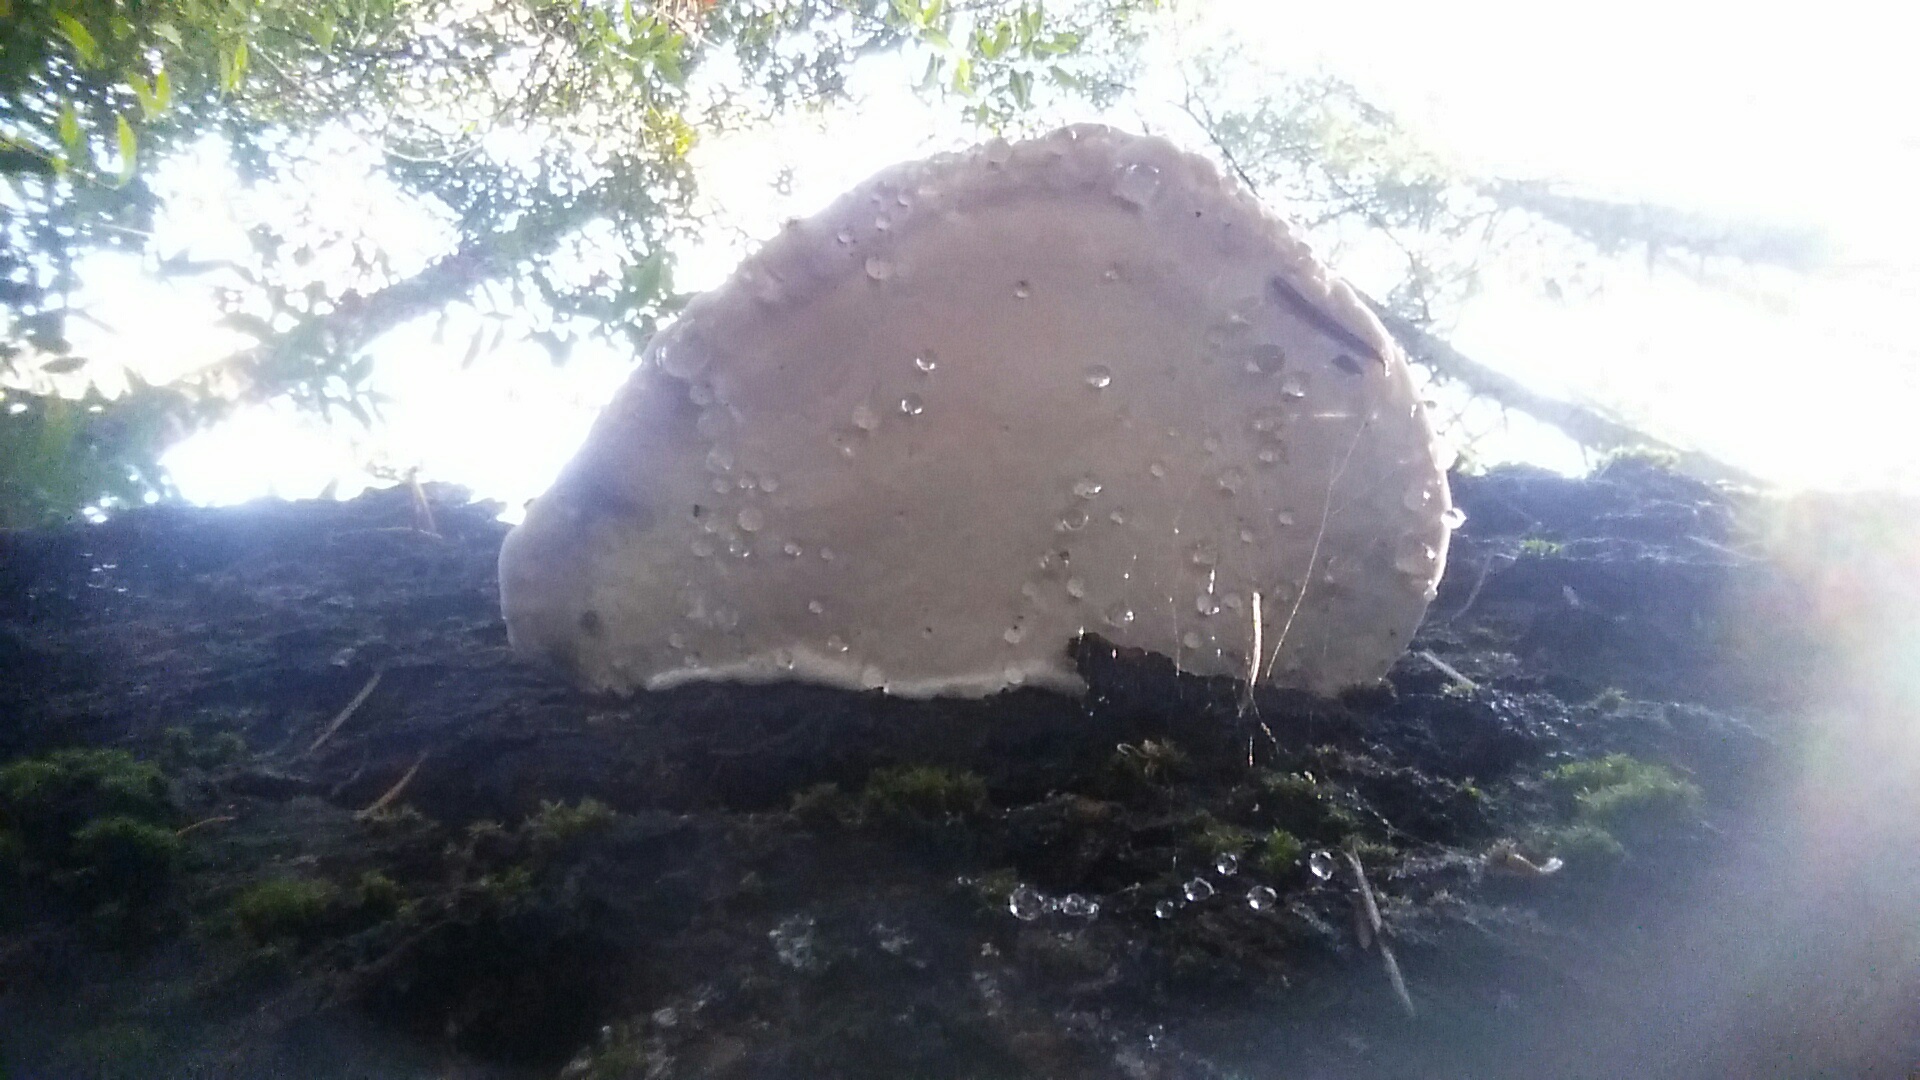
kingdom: Fungi
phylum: Basidiomycota
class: Agaricomycetes
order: Polyporales
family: Fomitopsidaceae
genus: Fomitopsis
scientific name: Fomitopsis mounceae
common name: Northern red belt
